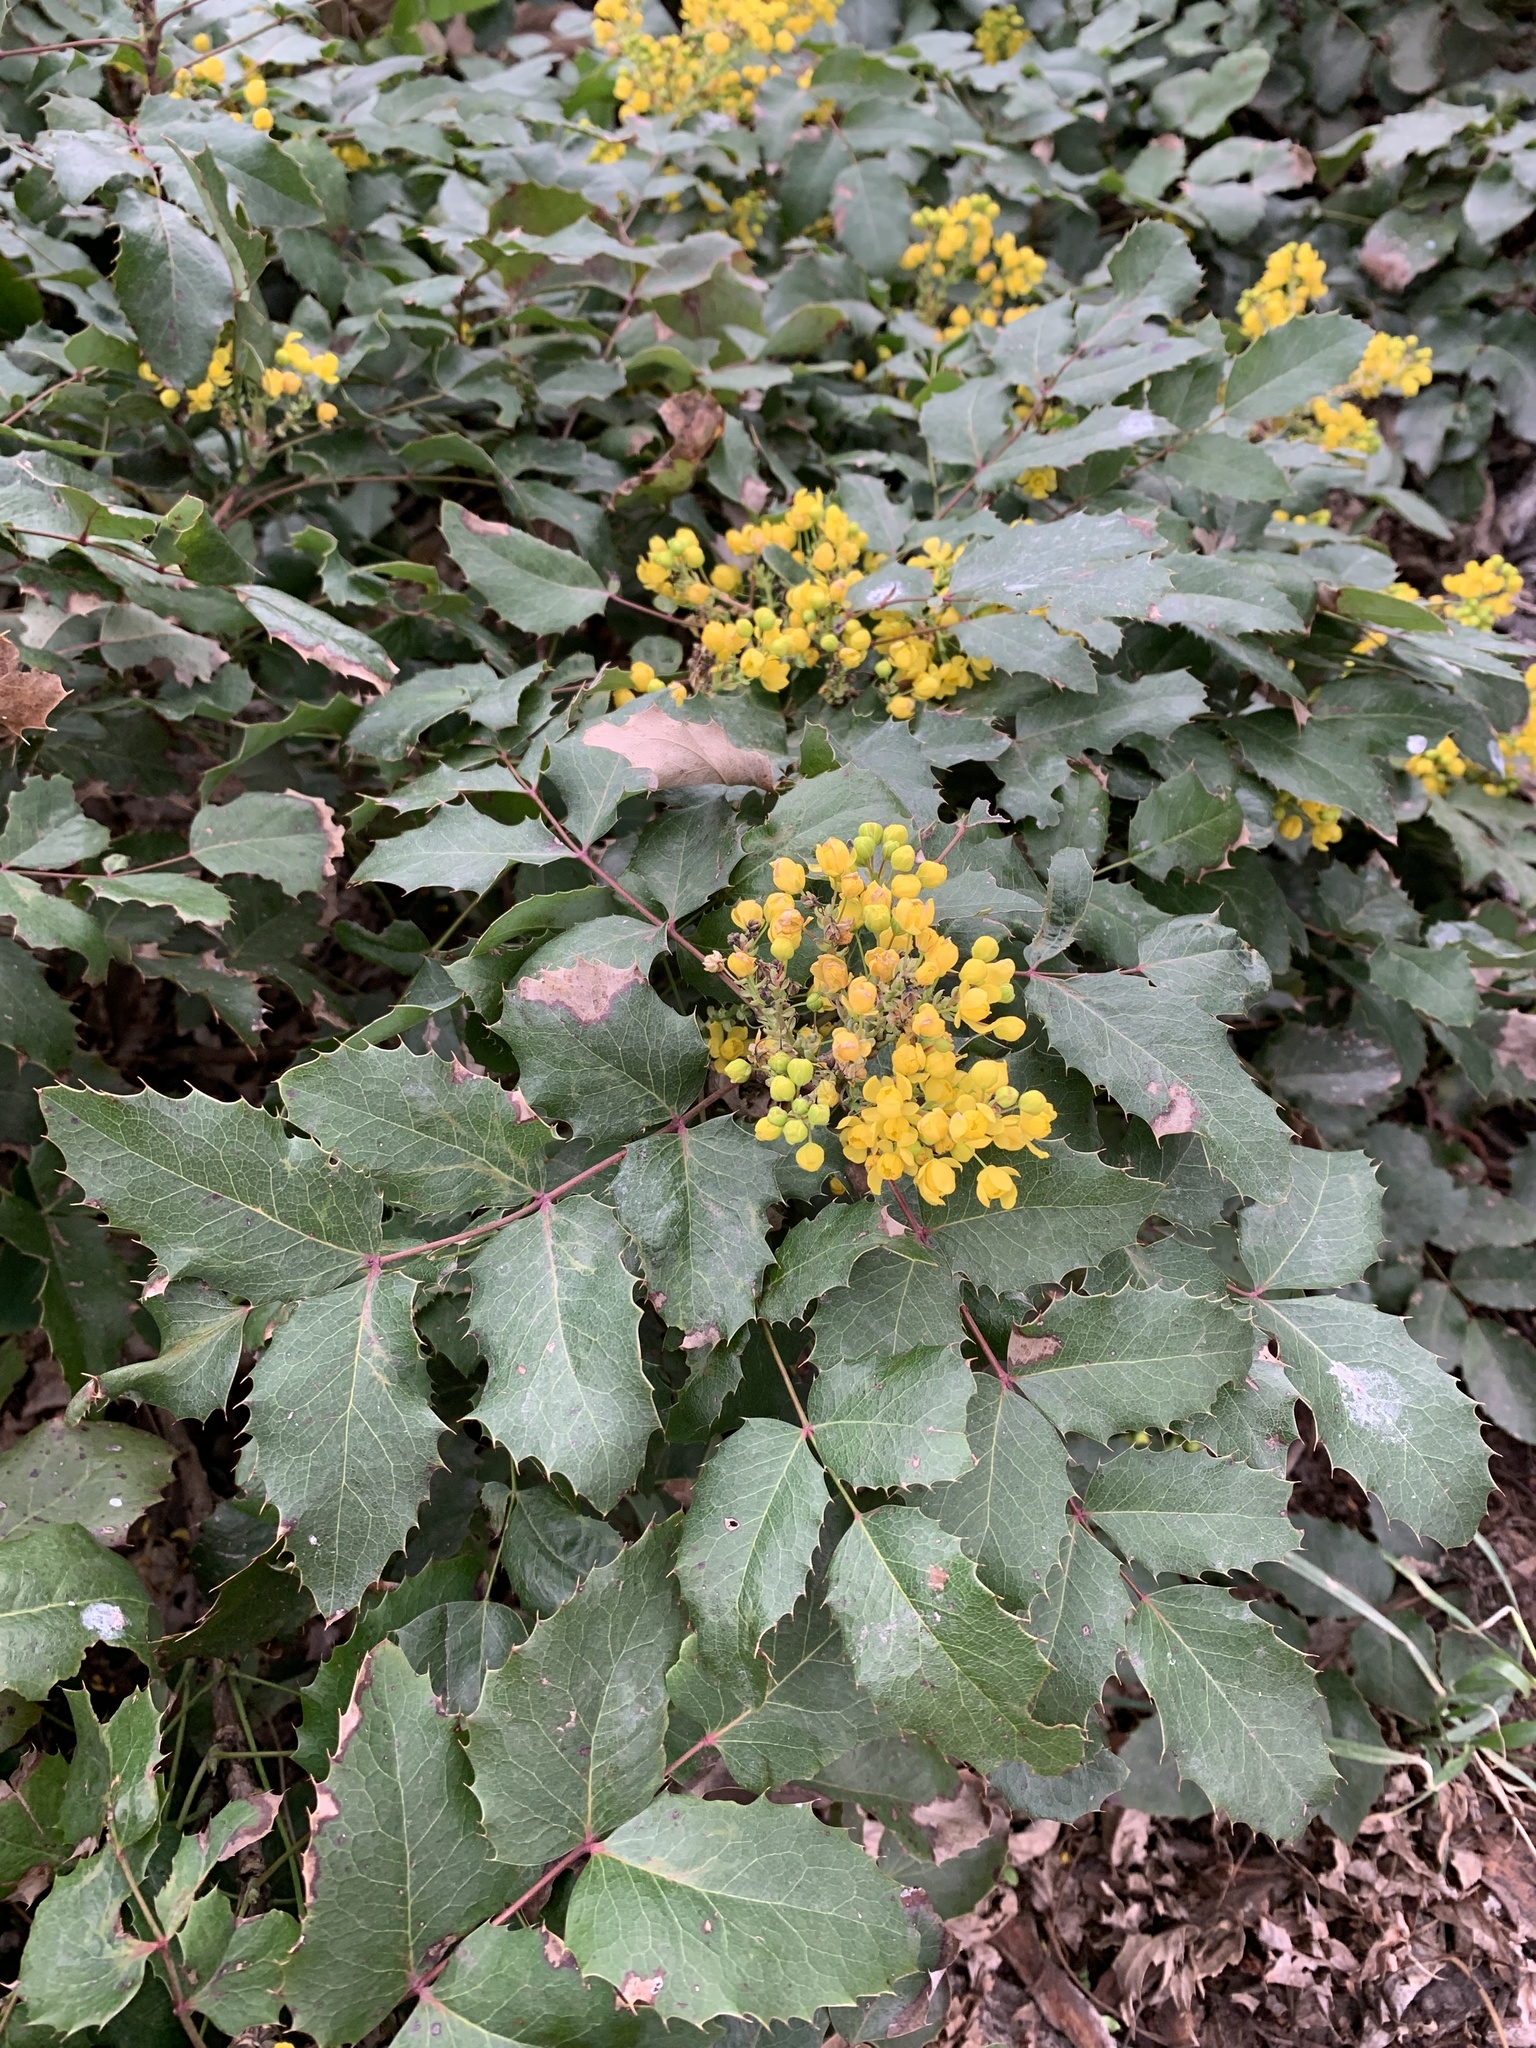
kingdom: Plantae
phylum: Tracheophyta
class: Magnoliopsida
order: Ranunculales
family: Berberidaceae
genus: Mahonia
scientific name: Mahonia repens
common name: Creeping oregon-grape
